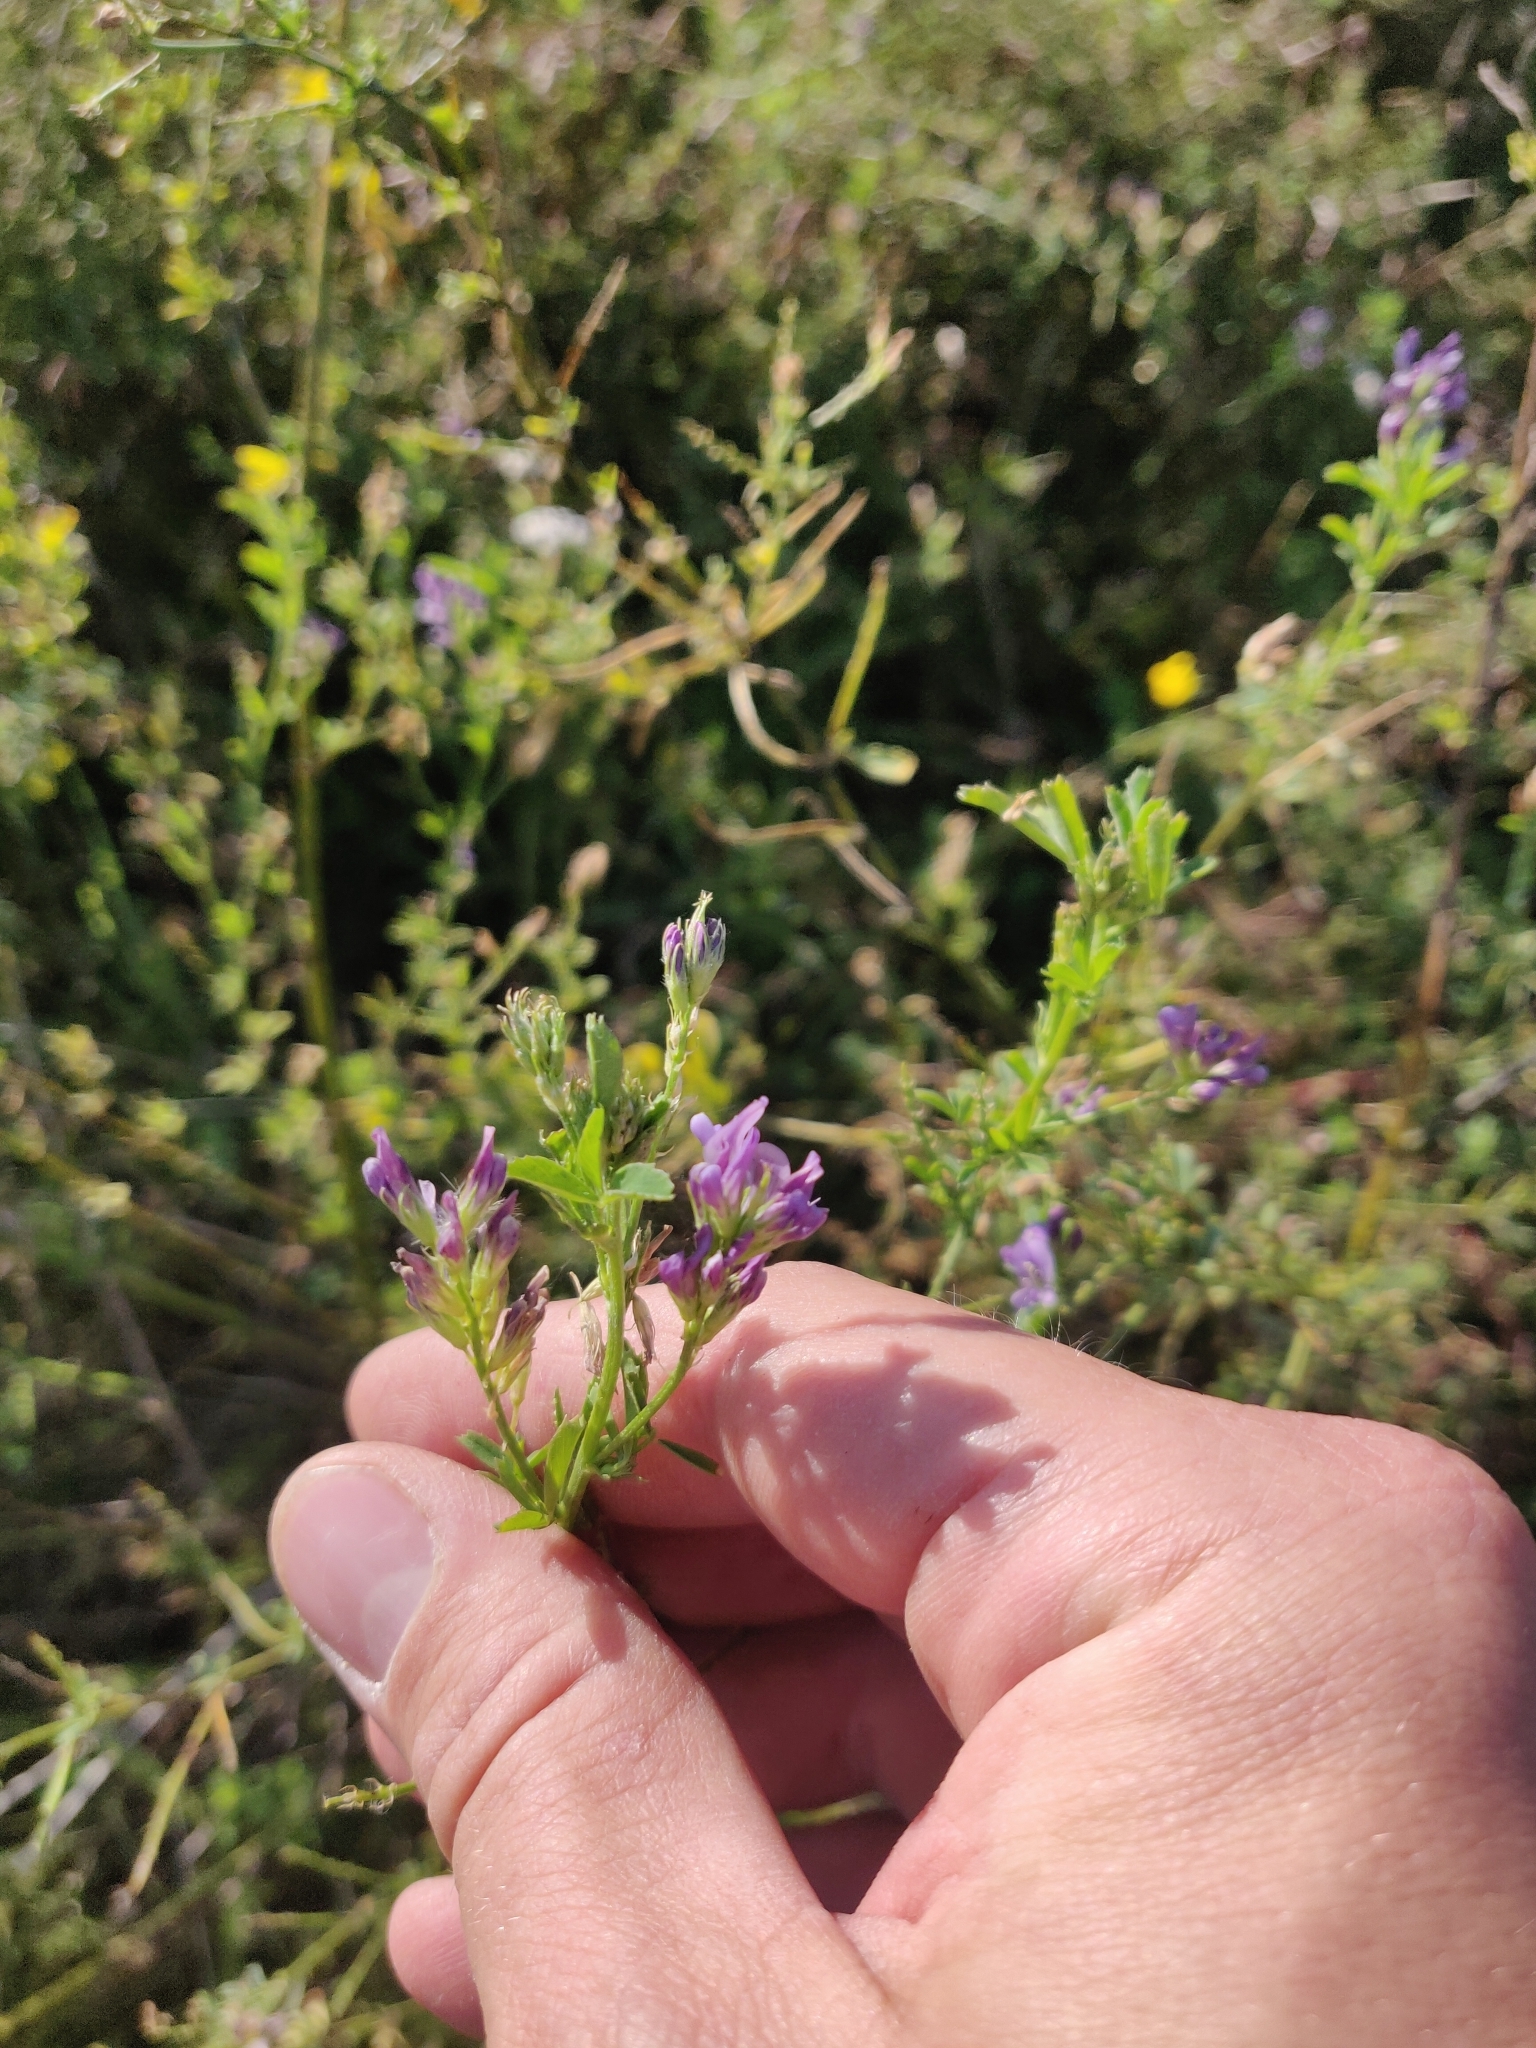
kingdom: Plantae
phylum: Tracheophyta
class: Magnoliopsida
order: Fabales
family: Fabaceae
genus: Medicago
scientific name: Medicago sativa
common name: Alfalfa
